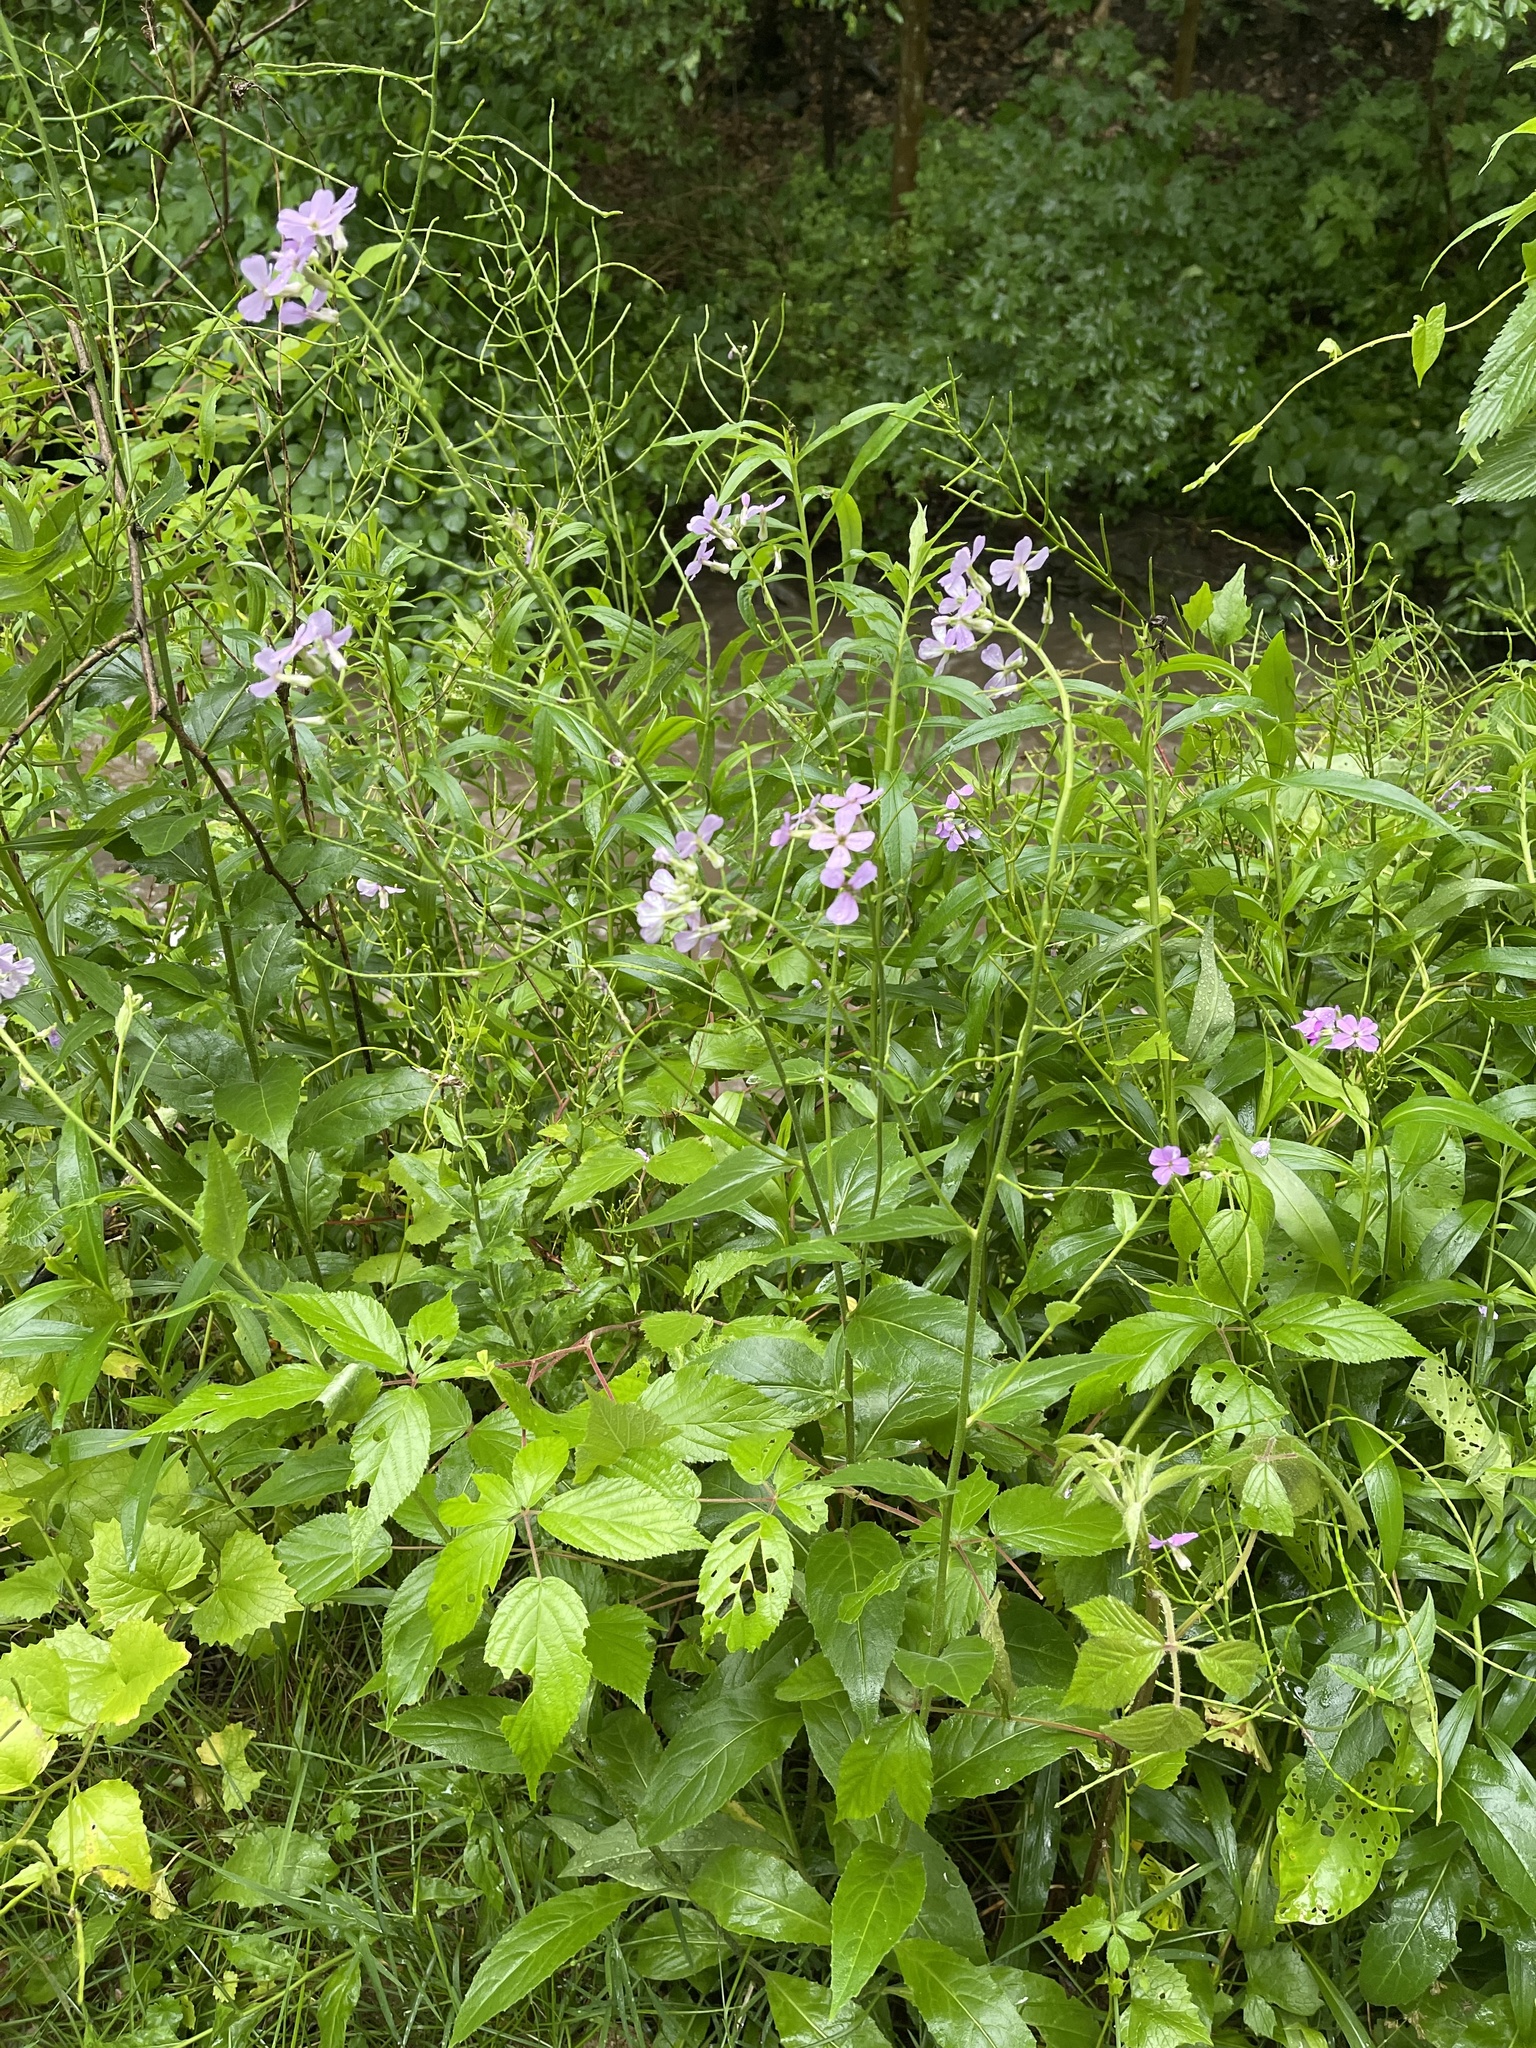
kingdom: Plantae
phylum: Tracheophyta
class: Magnoliopsida
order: Brassicales
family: Brassicaceae
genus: Hesperis
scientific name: Hesperis matronalis
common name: Dame's-violet
